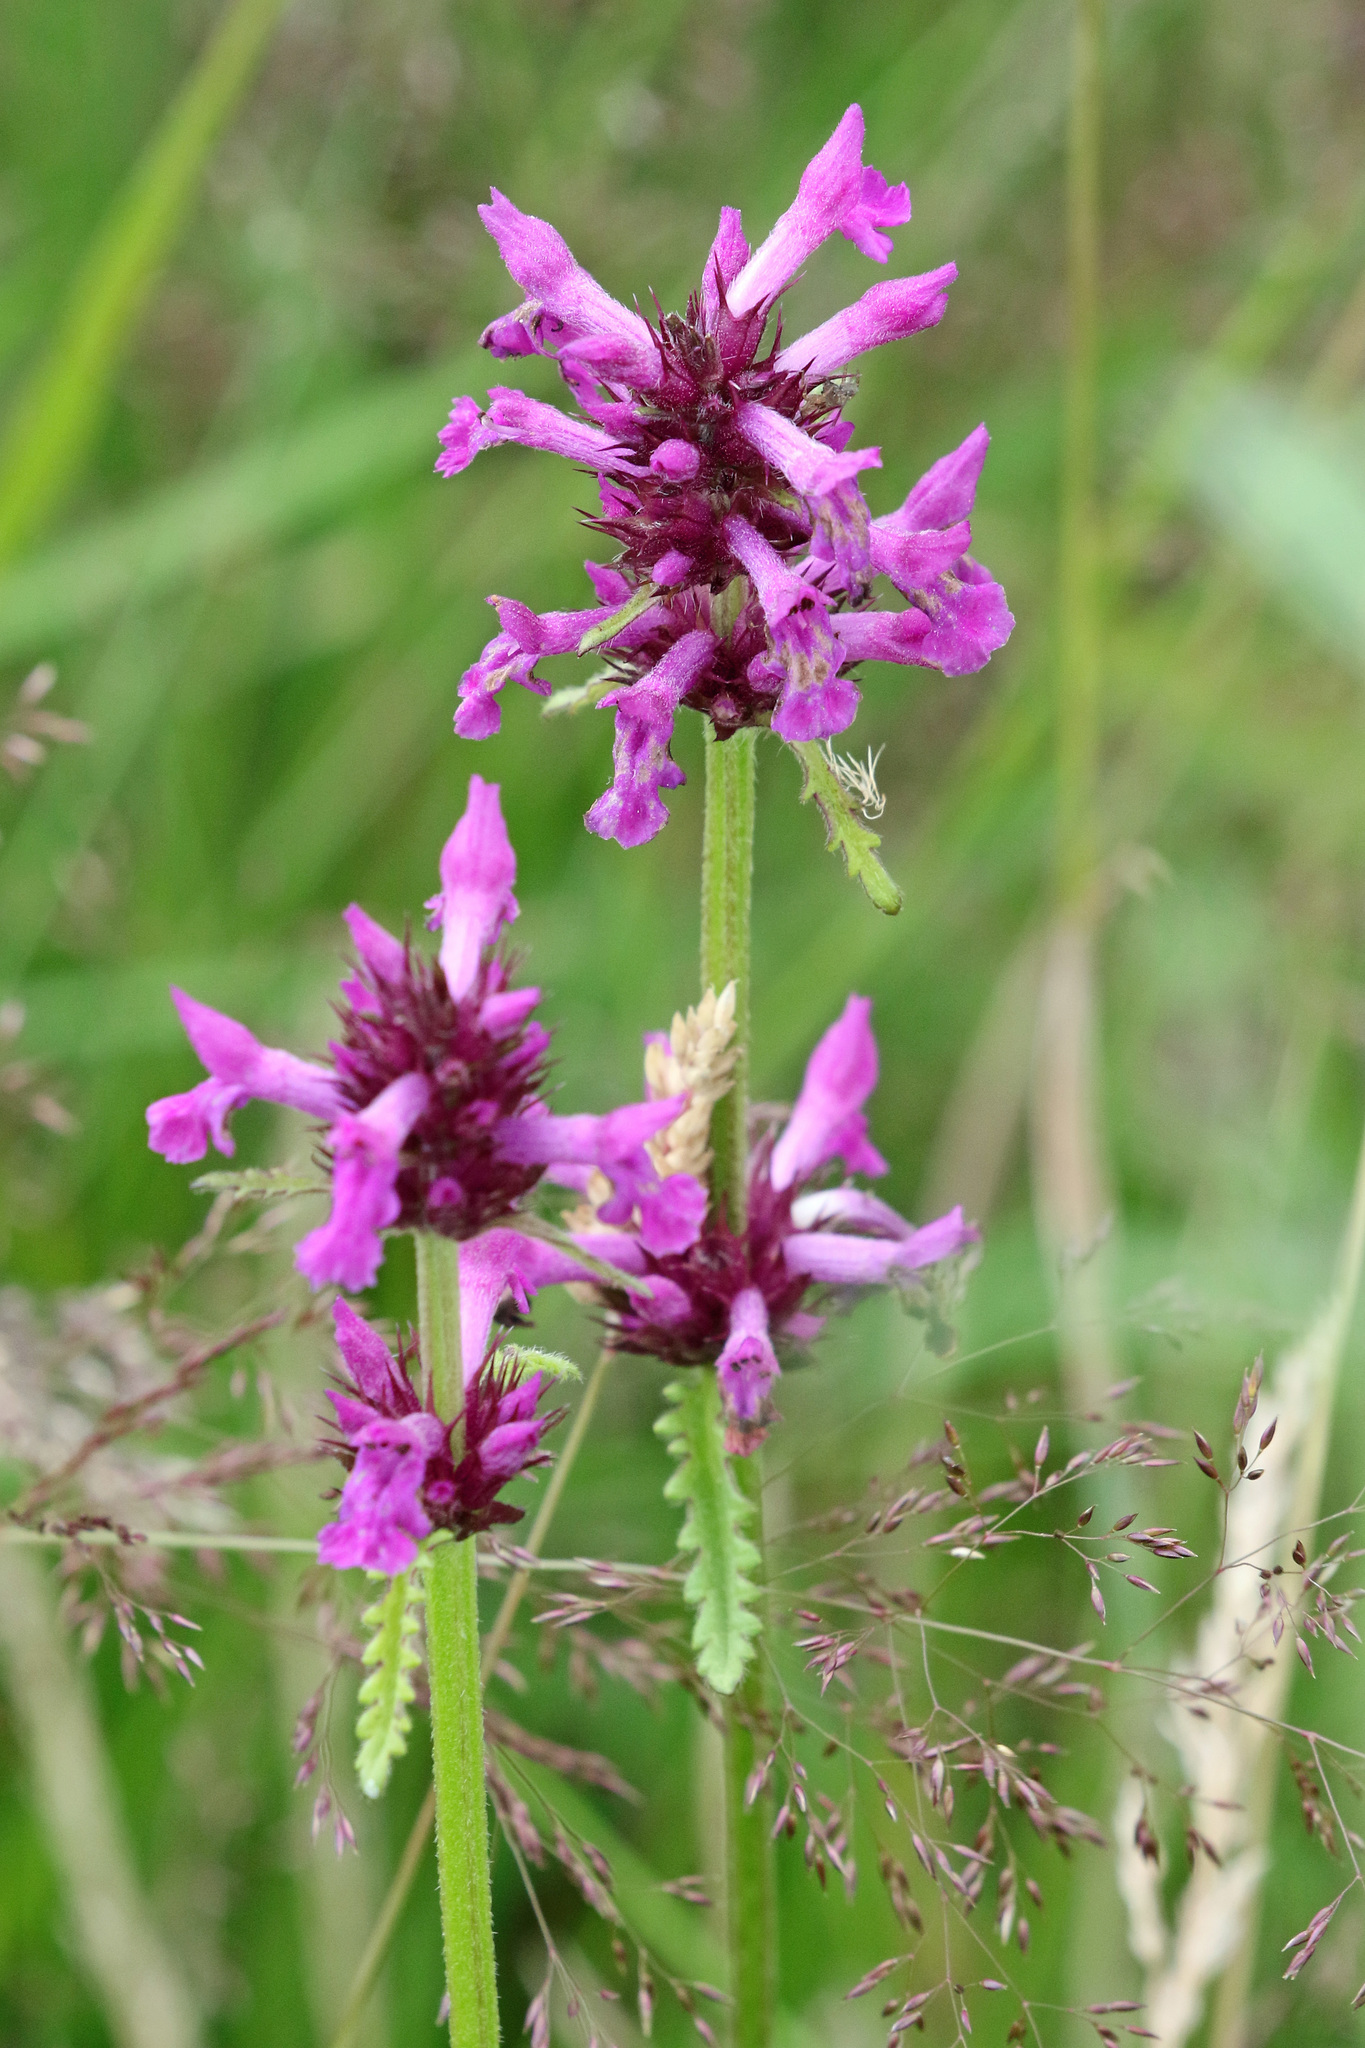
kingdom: Plantae
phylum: Tracheophyta
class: Magnoliopsida
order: Lamiales
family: Lamiaceae
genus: Betonica
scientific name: Betonica officinalis
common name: Bishop's-wort
